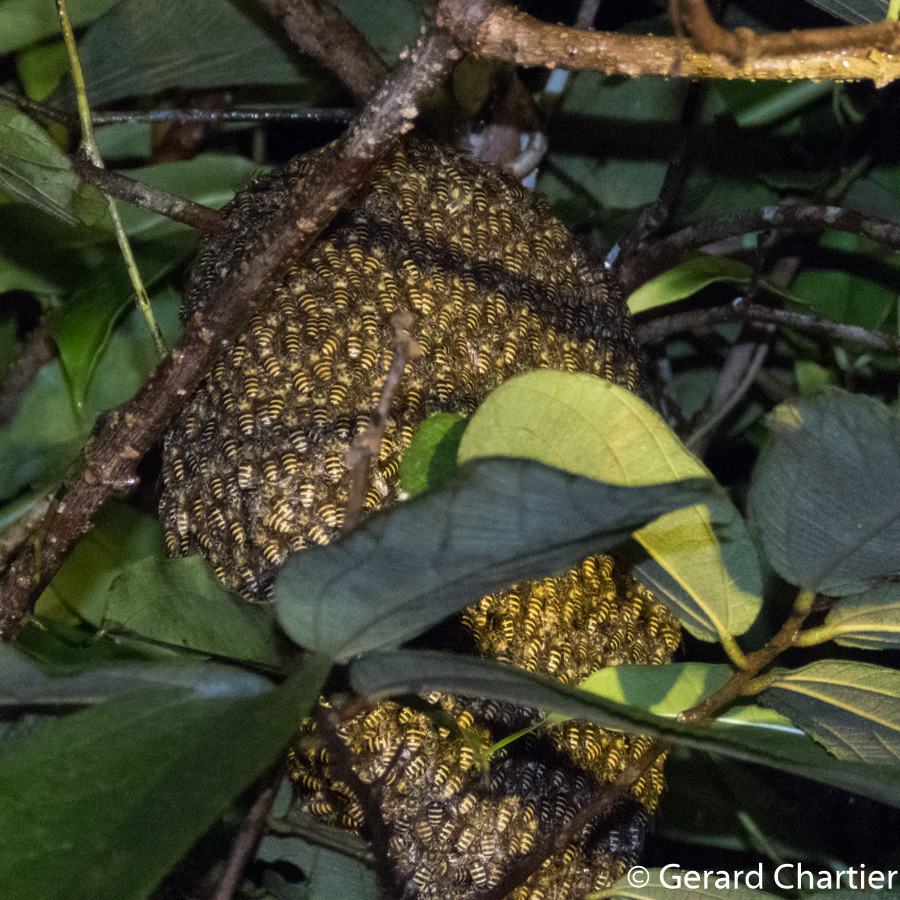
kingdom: Animalia
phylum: Arthropoda
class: Insecta
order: Hymenoptera
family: Apidae
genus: Apis
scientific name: Apis andreniformis
